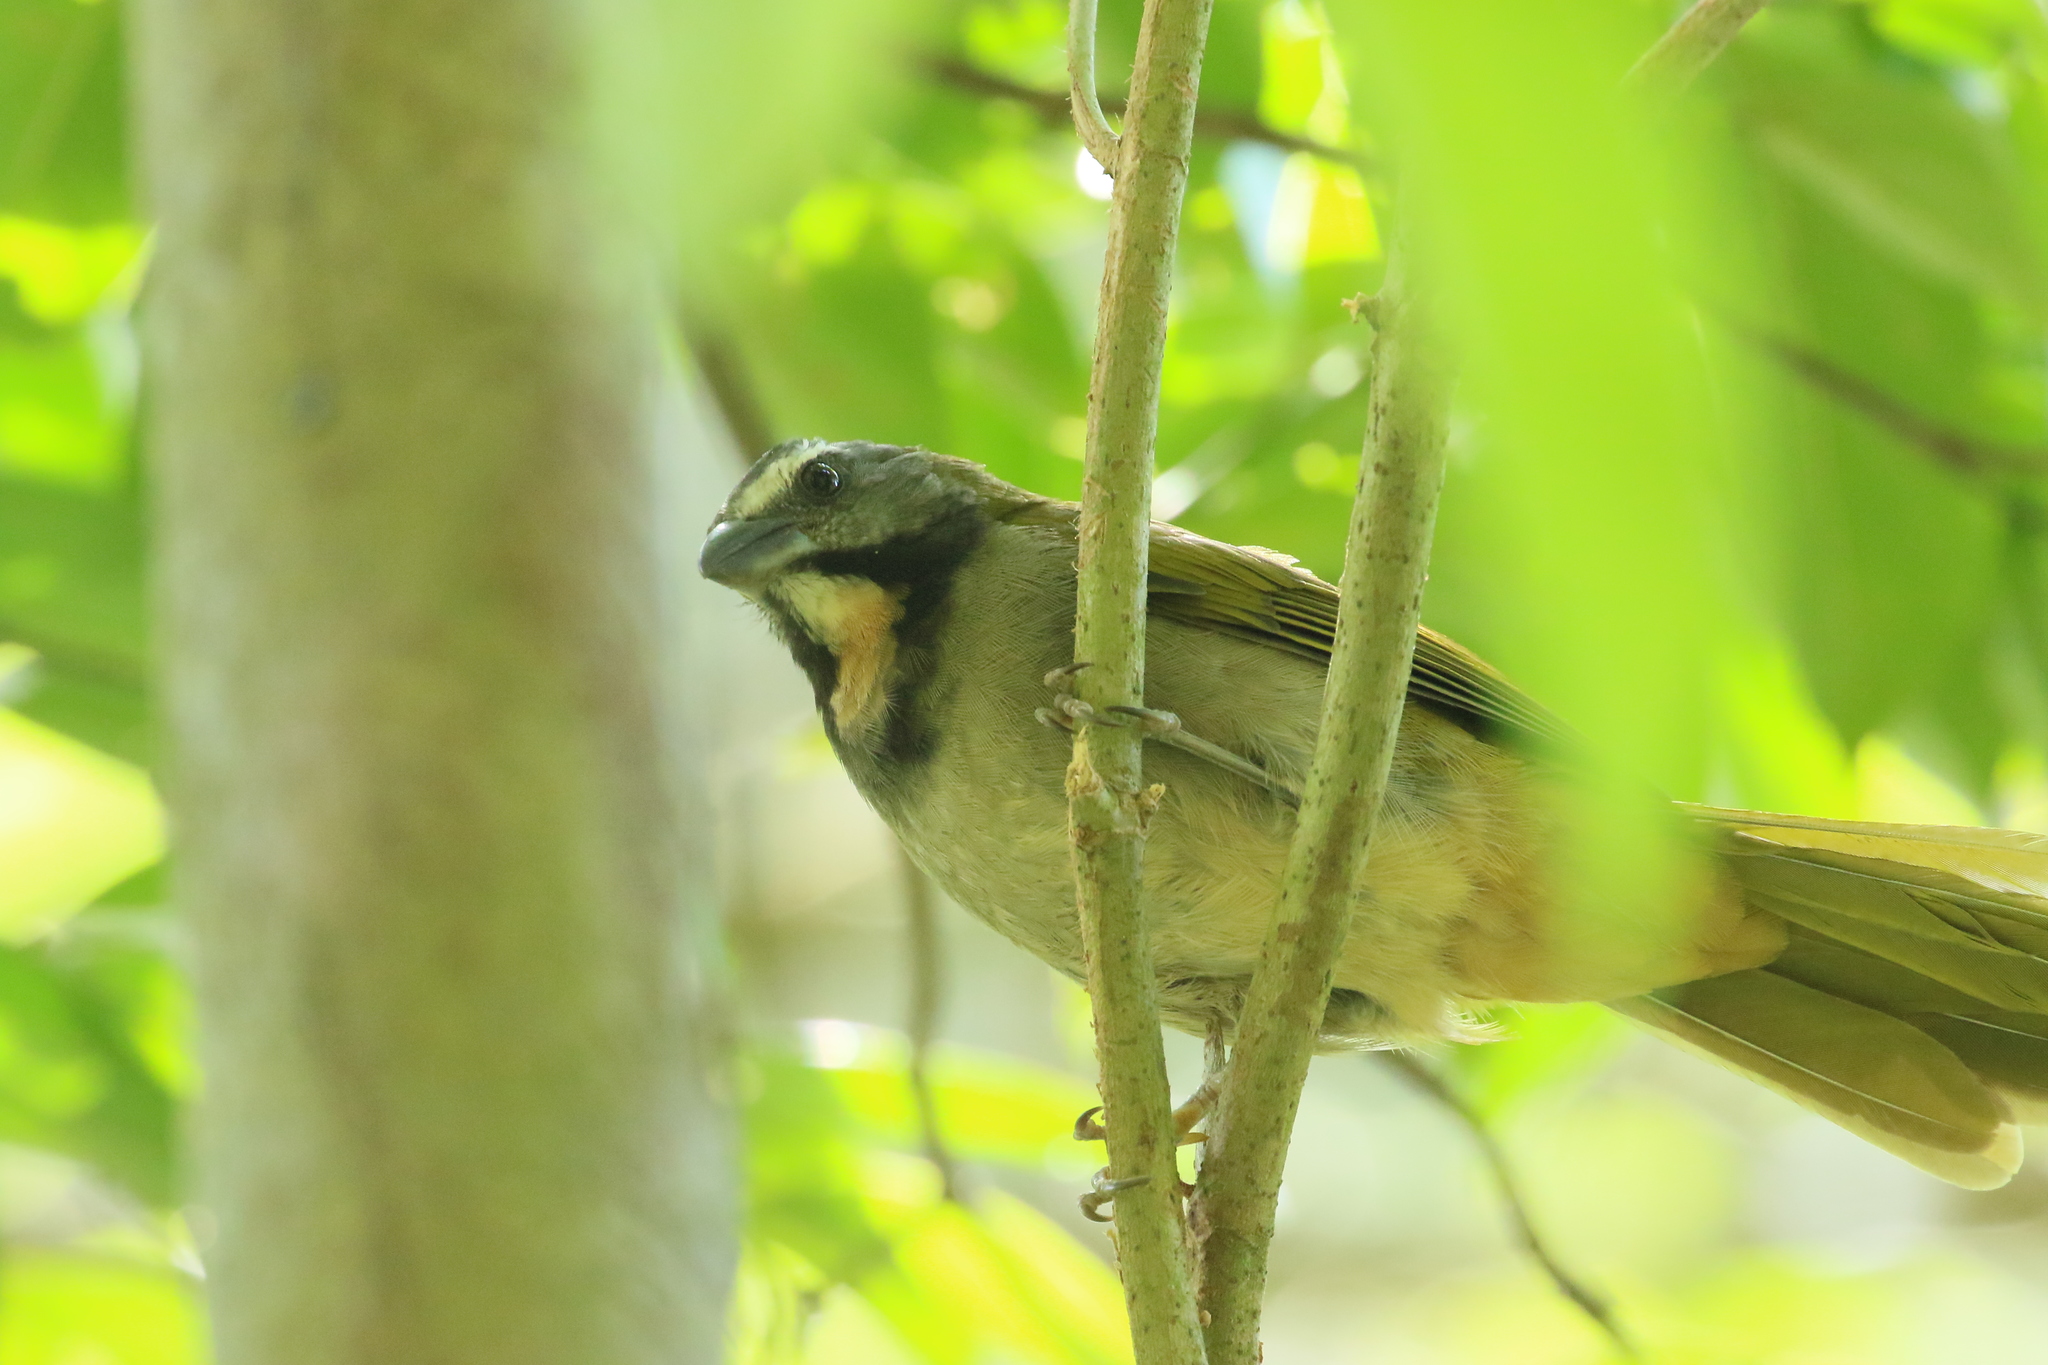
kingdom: Animalia
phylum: Chordata
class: Aves
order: Passeriformes
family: Thraupidae
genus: Saltator
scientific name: Saltator maximus
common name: Buff-throated saltator
